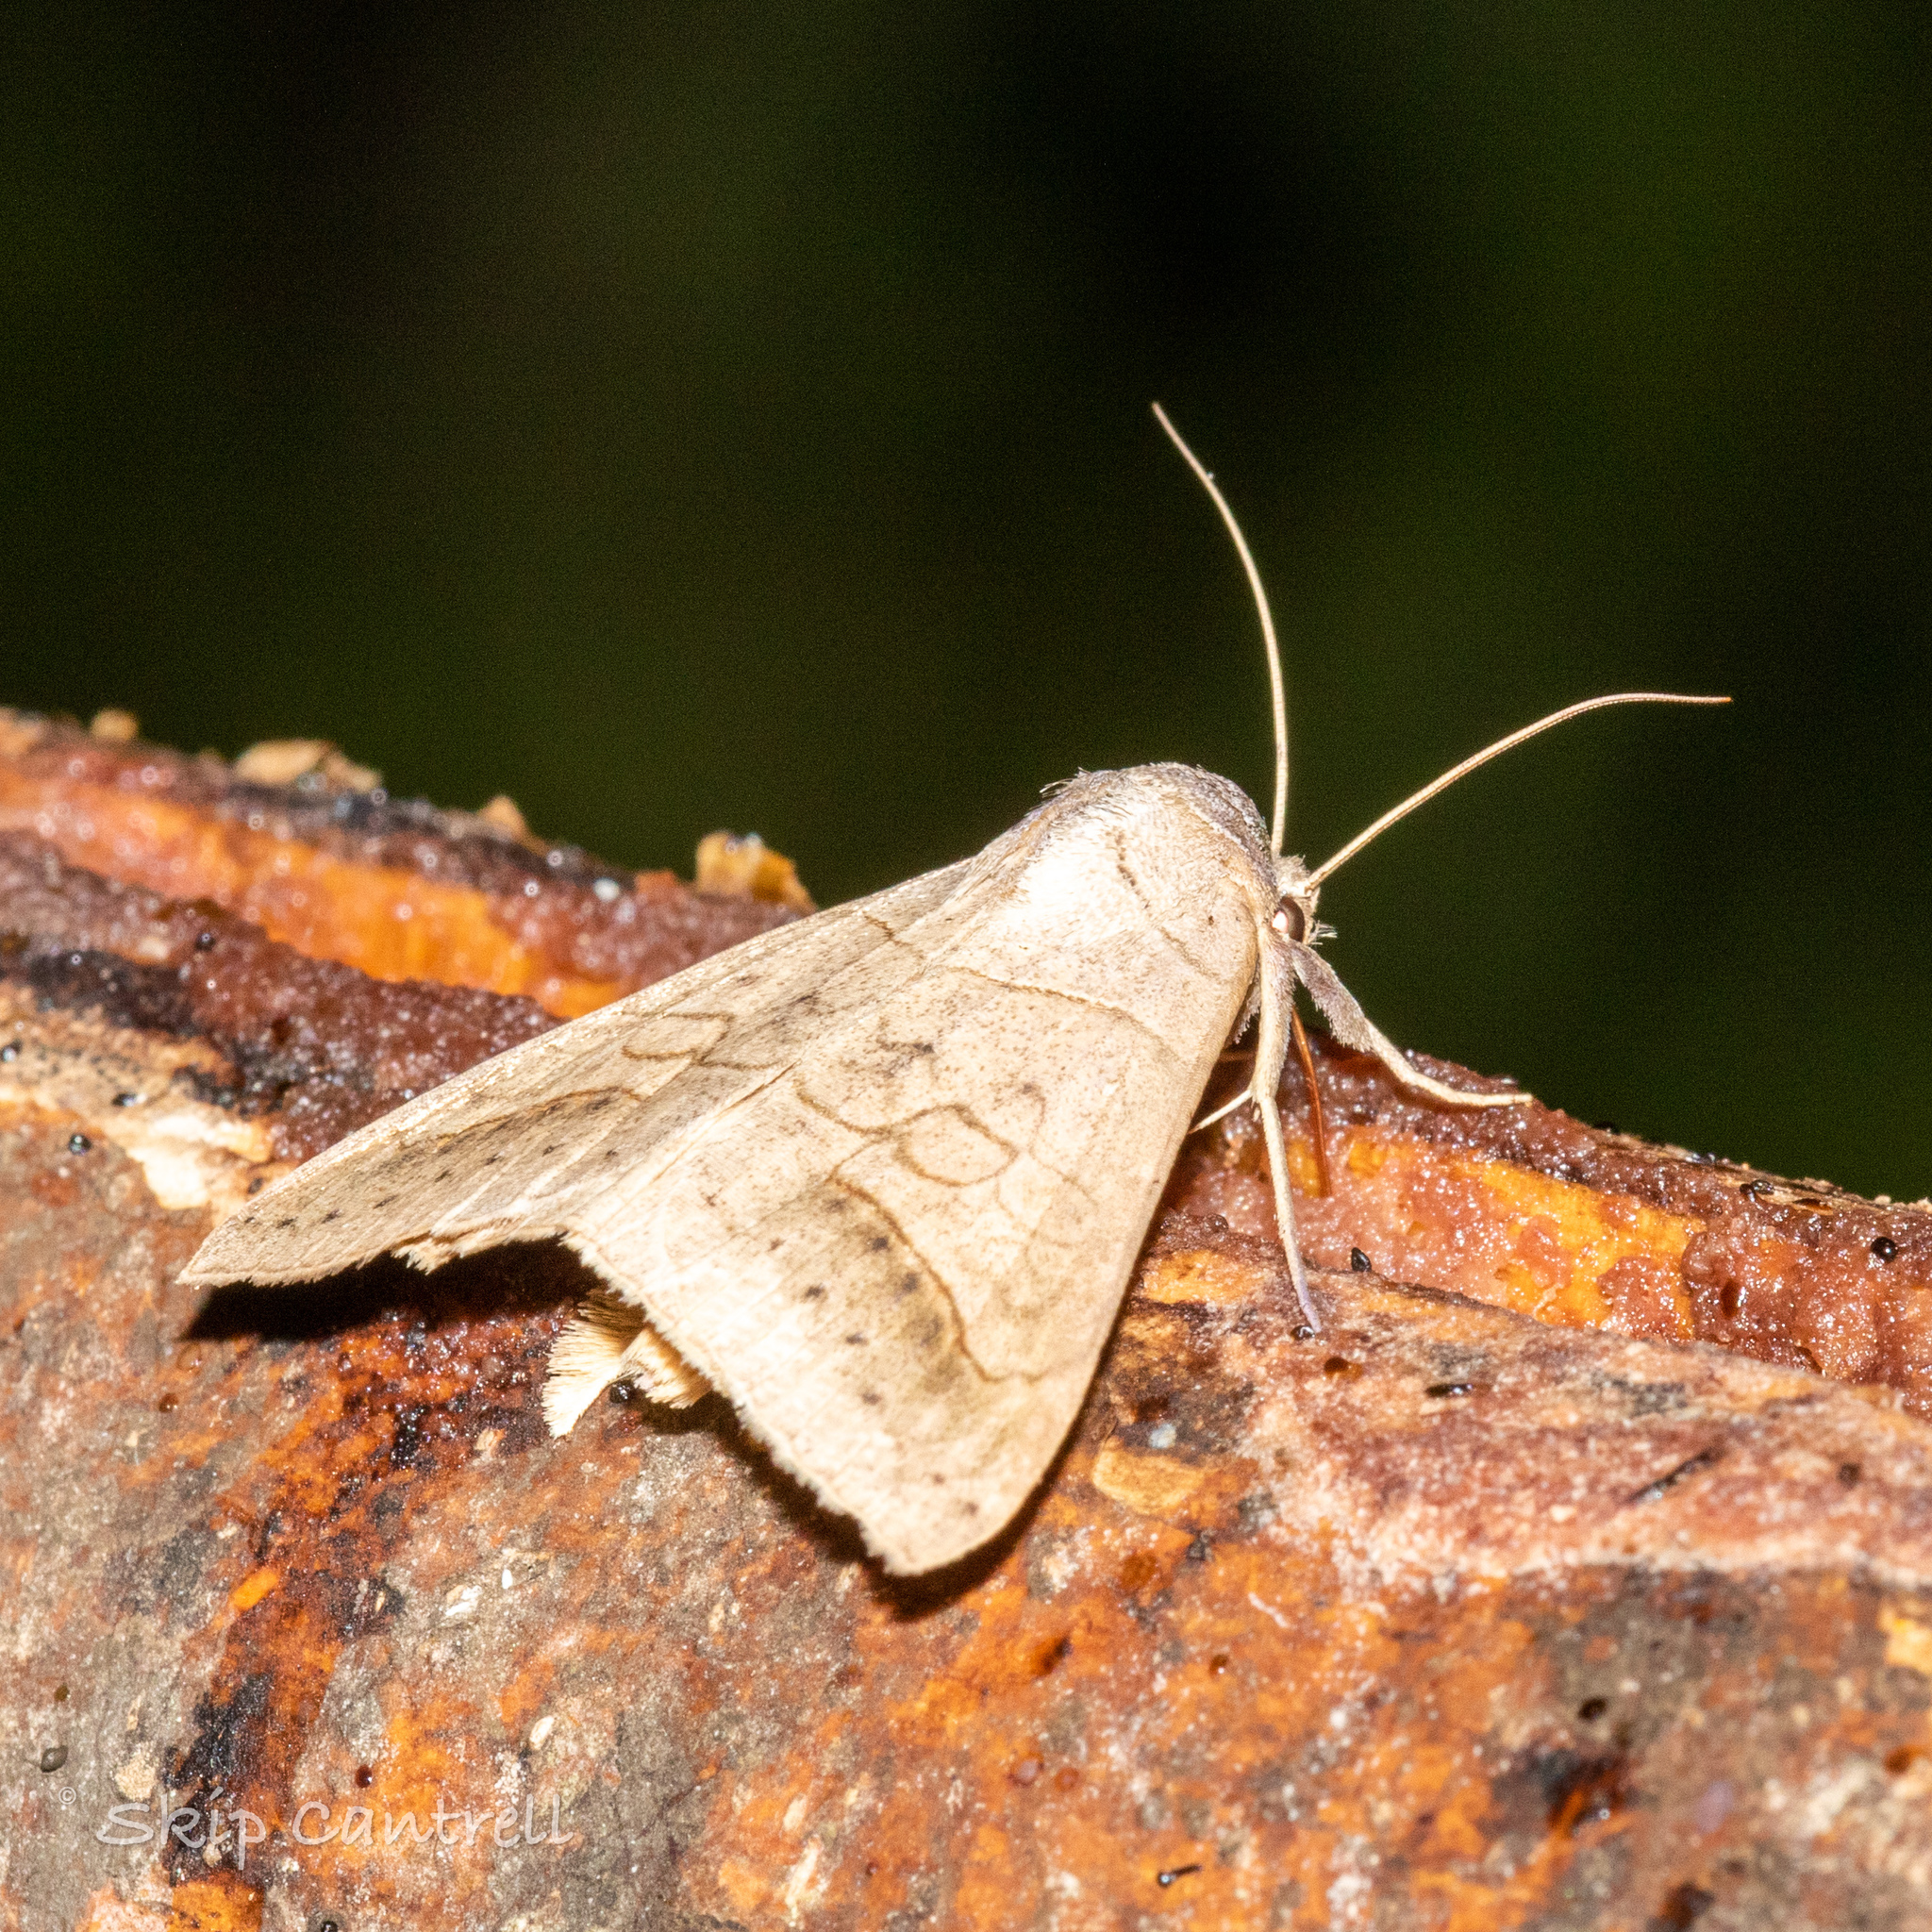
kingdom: Animalia
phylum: Arthropoda
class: Insecta
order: Lepidoptera
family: Erebidae
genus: Mocis
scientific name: Mocis marcida
